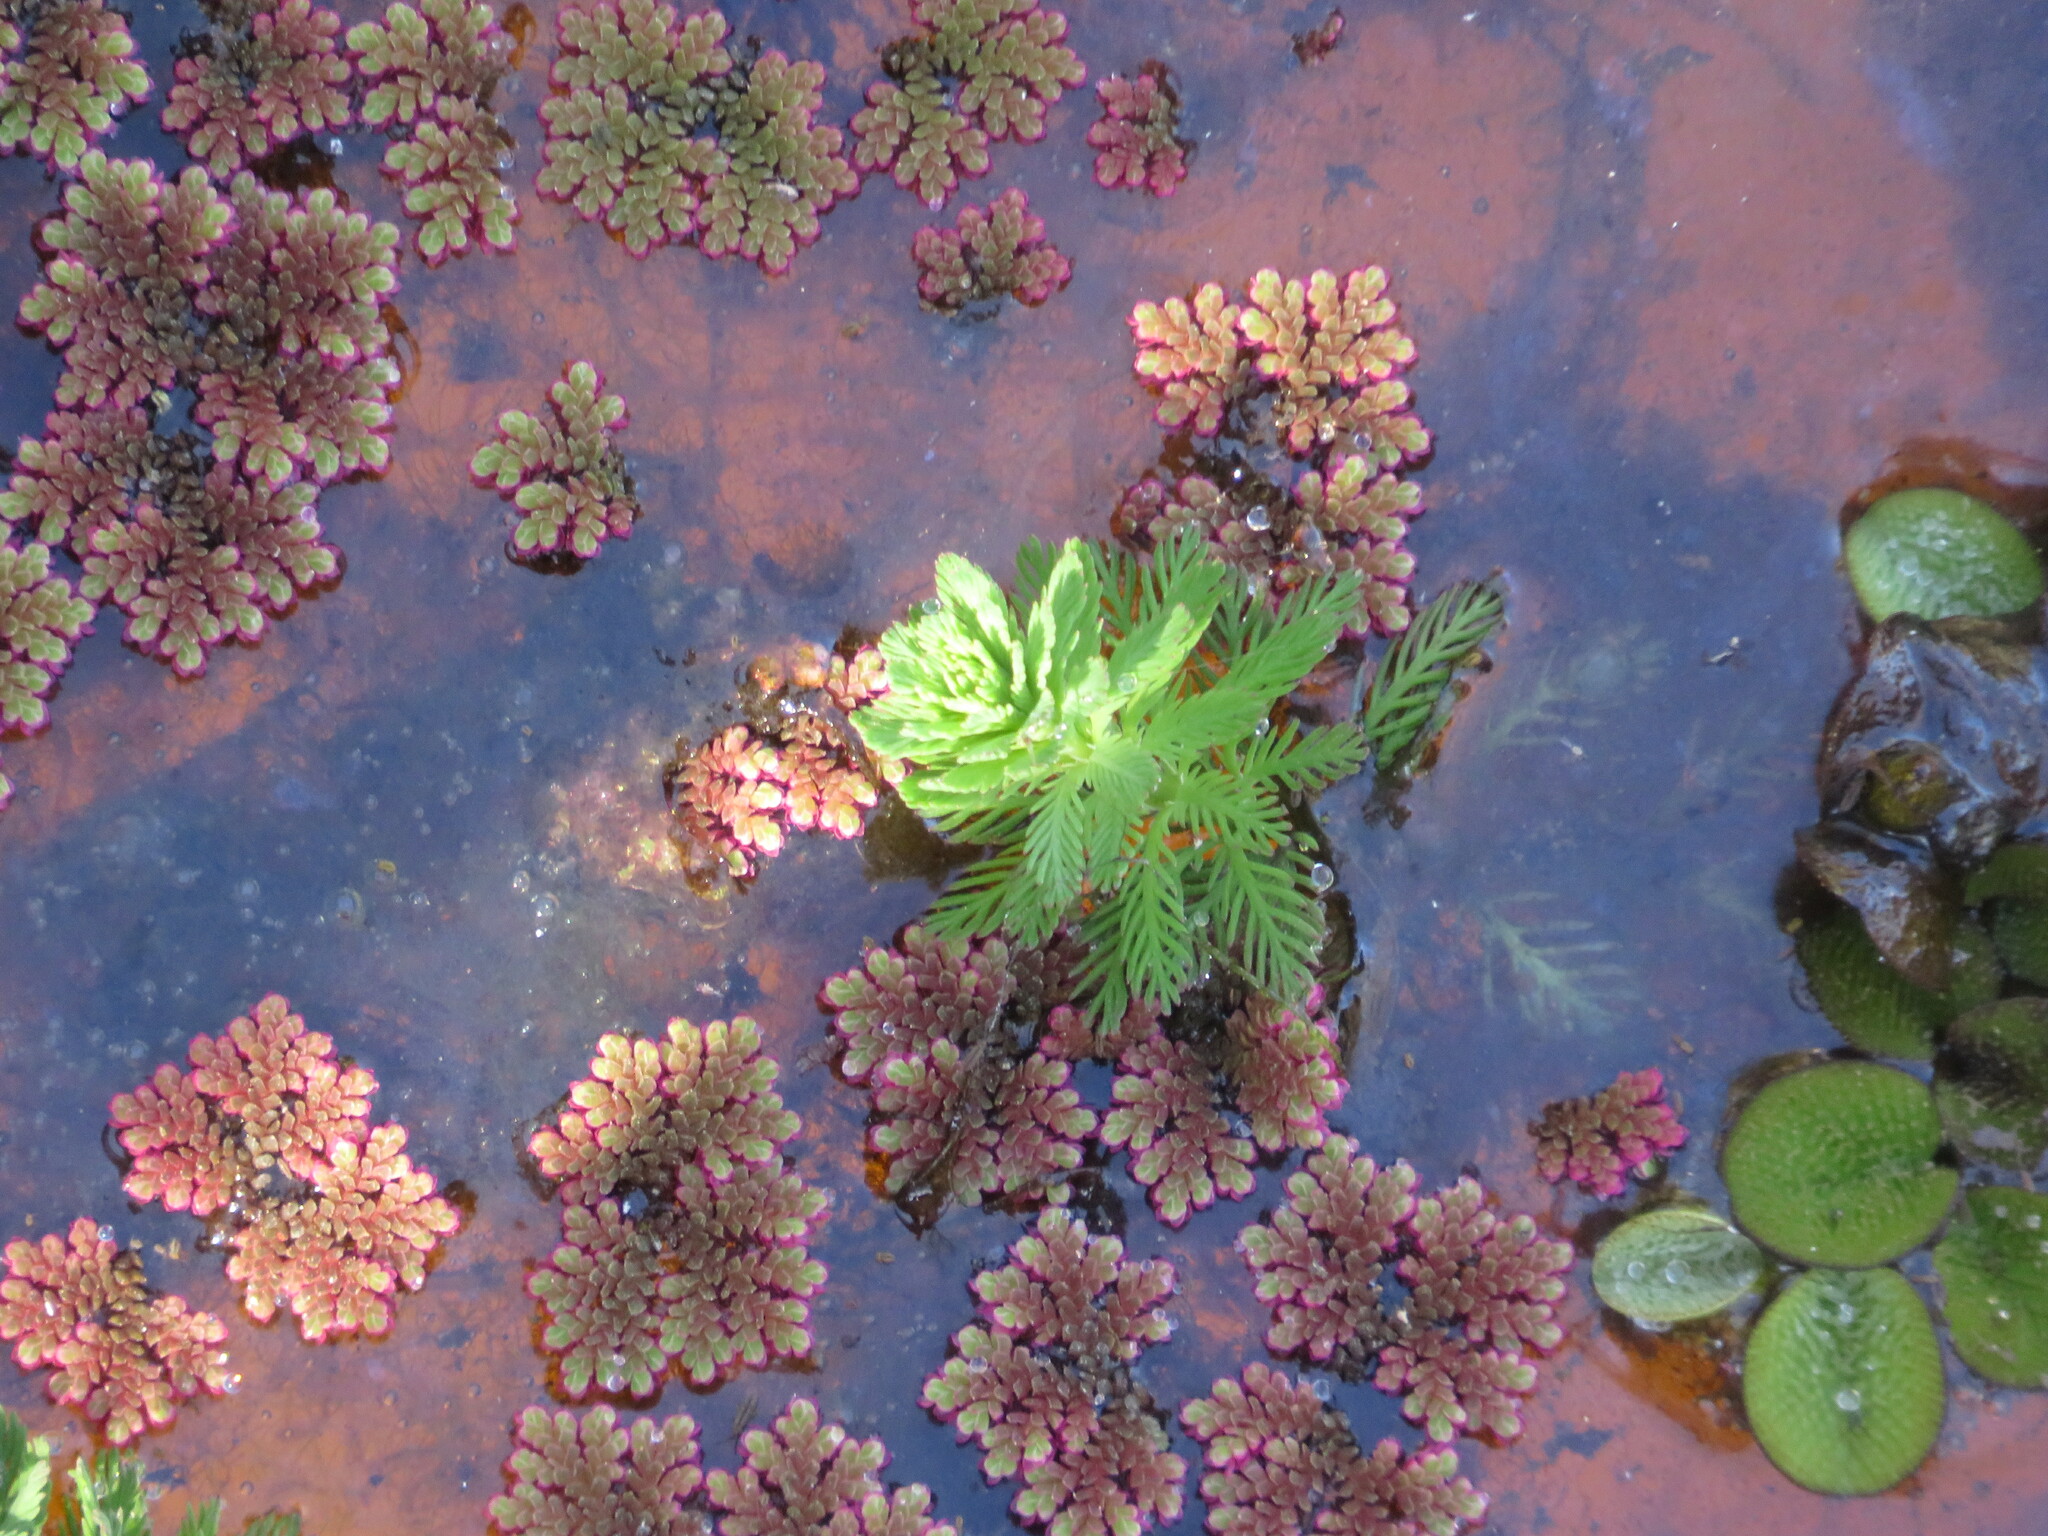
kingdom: Plantae
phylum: Tracheophyta
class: Magnoliopsida
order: Saxifragales
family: Haloragaceae
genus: Myriophyllum
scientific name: Myriophyllum aquaticum
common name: Parrot's feather
